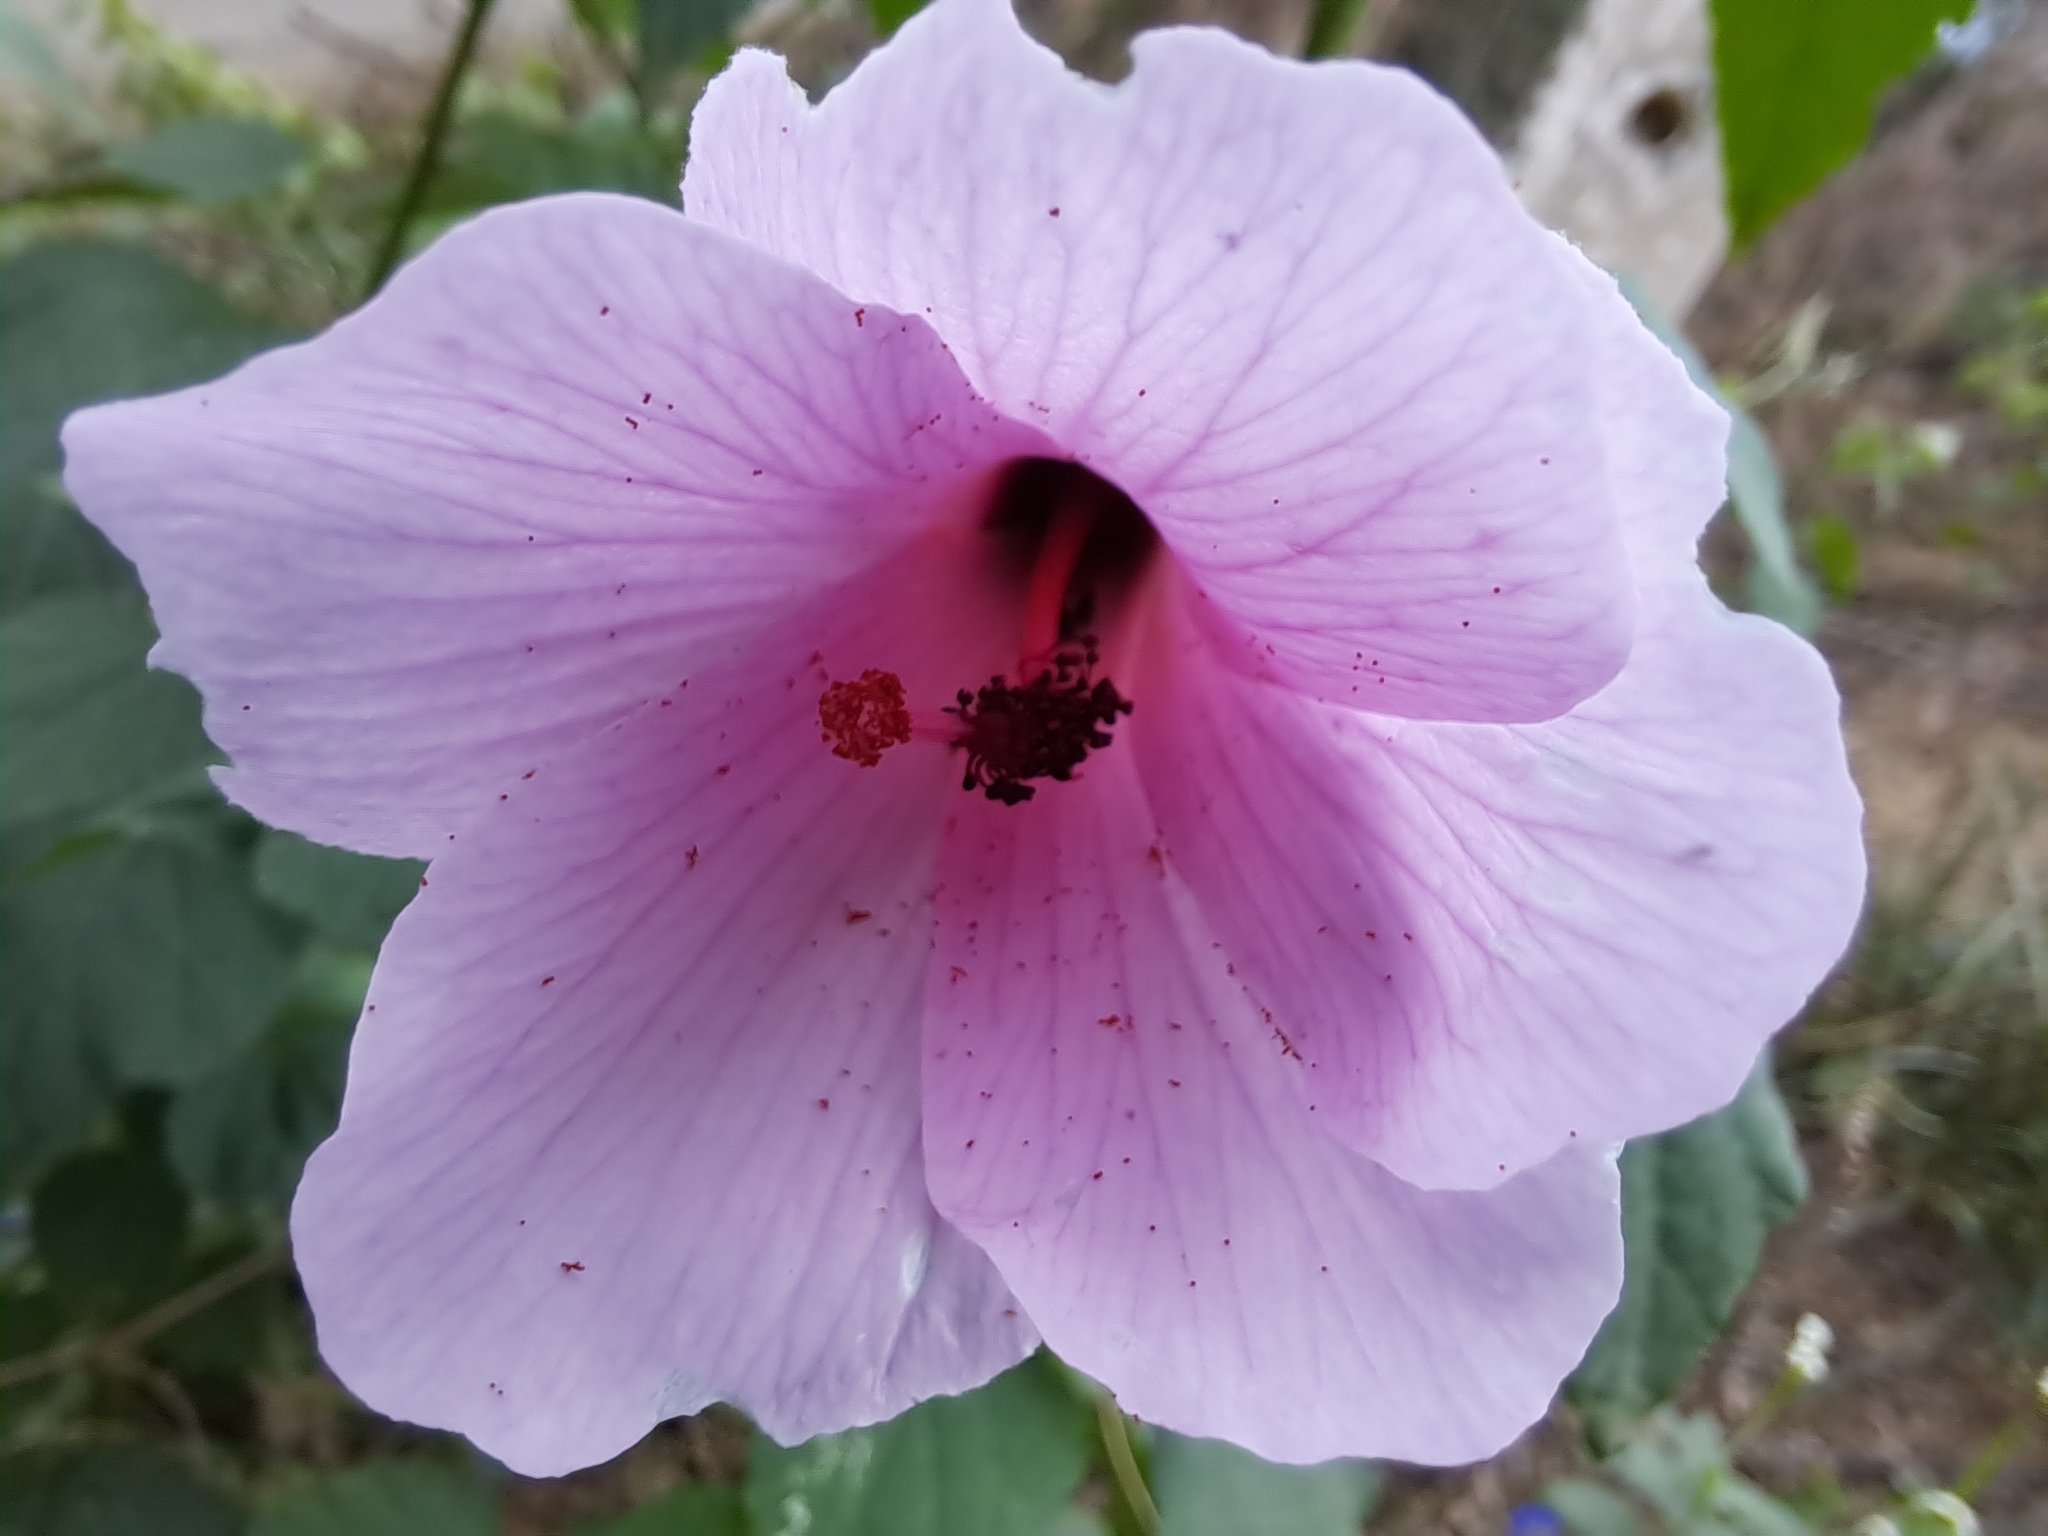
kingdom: Plantae
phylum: Tracheophyta
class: Magnoliopsida
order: Malvales
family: Malvaceae
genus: Hibiscus
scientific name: Hibiscus escobariae
